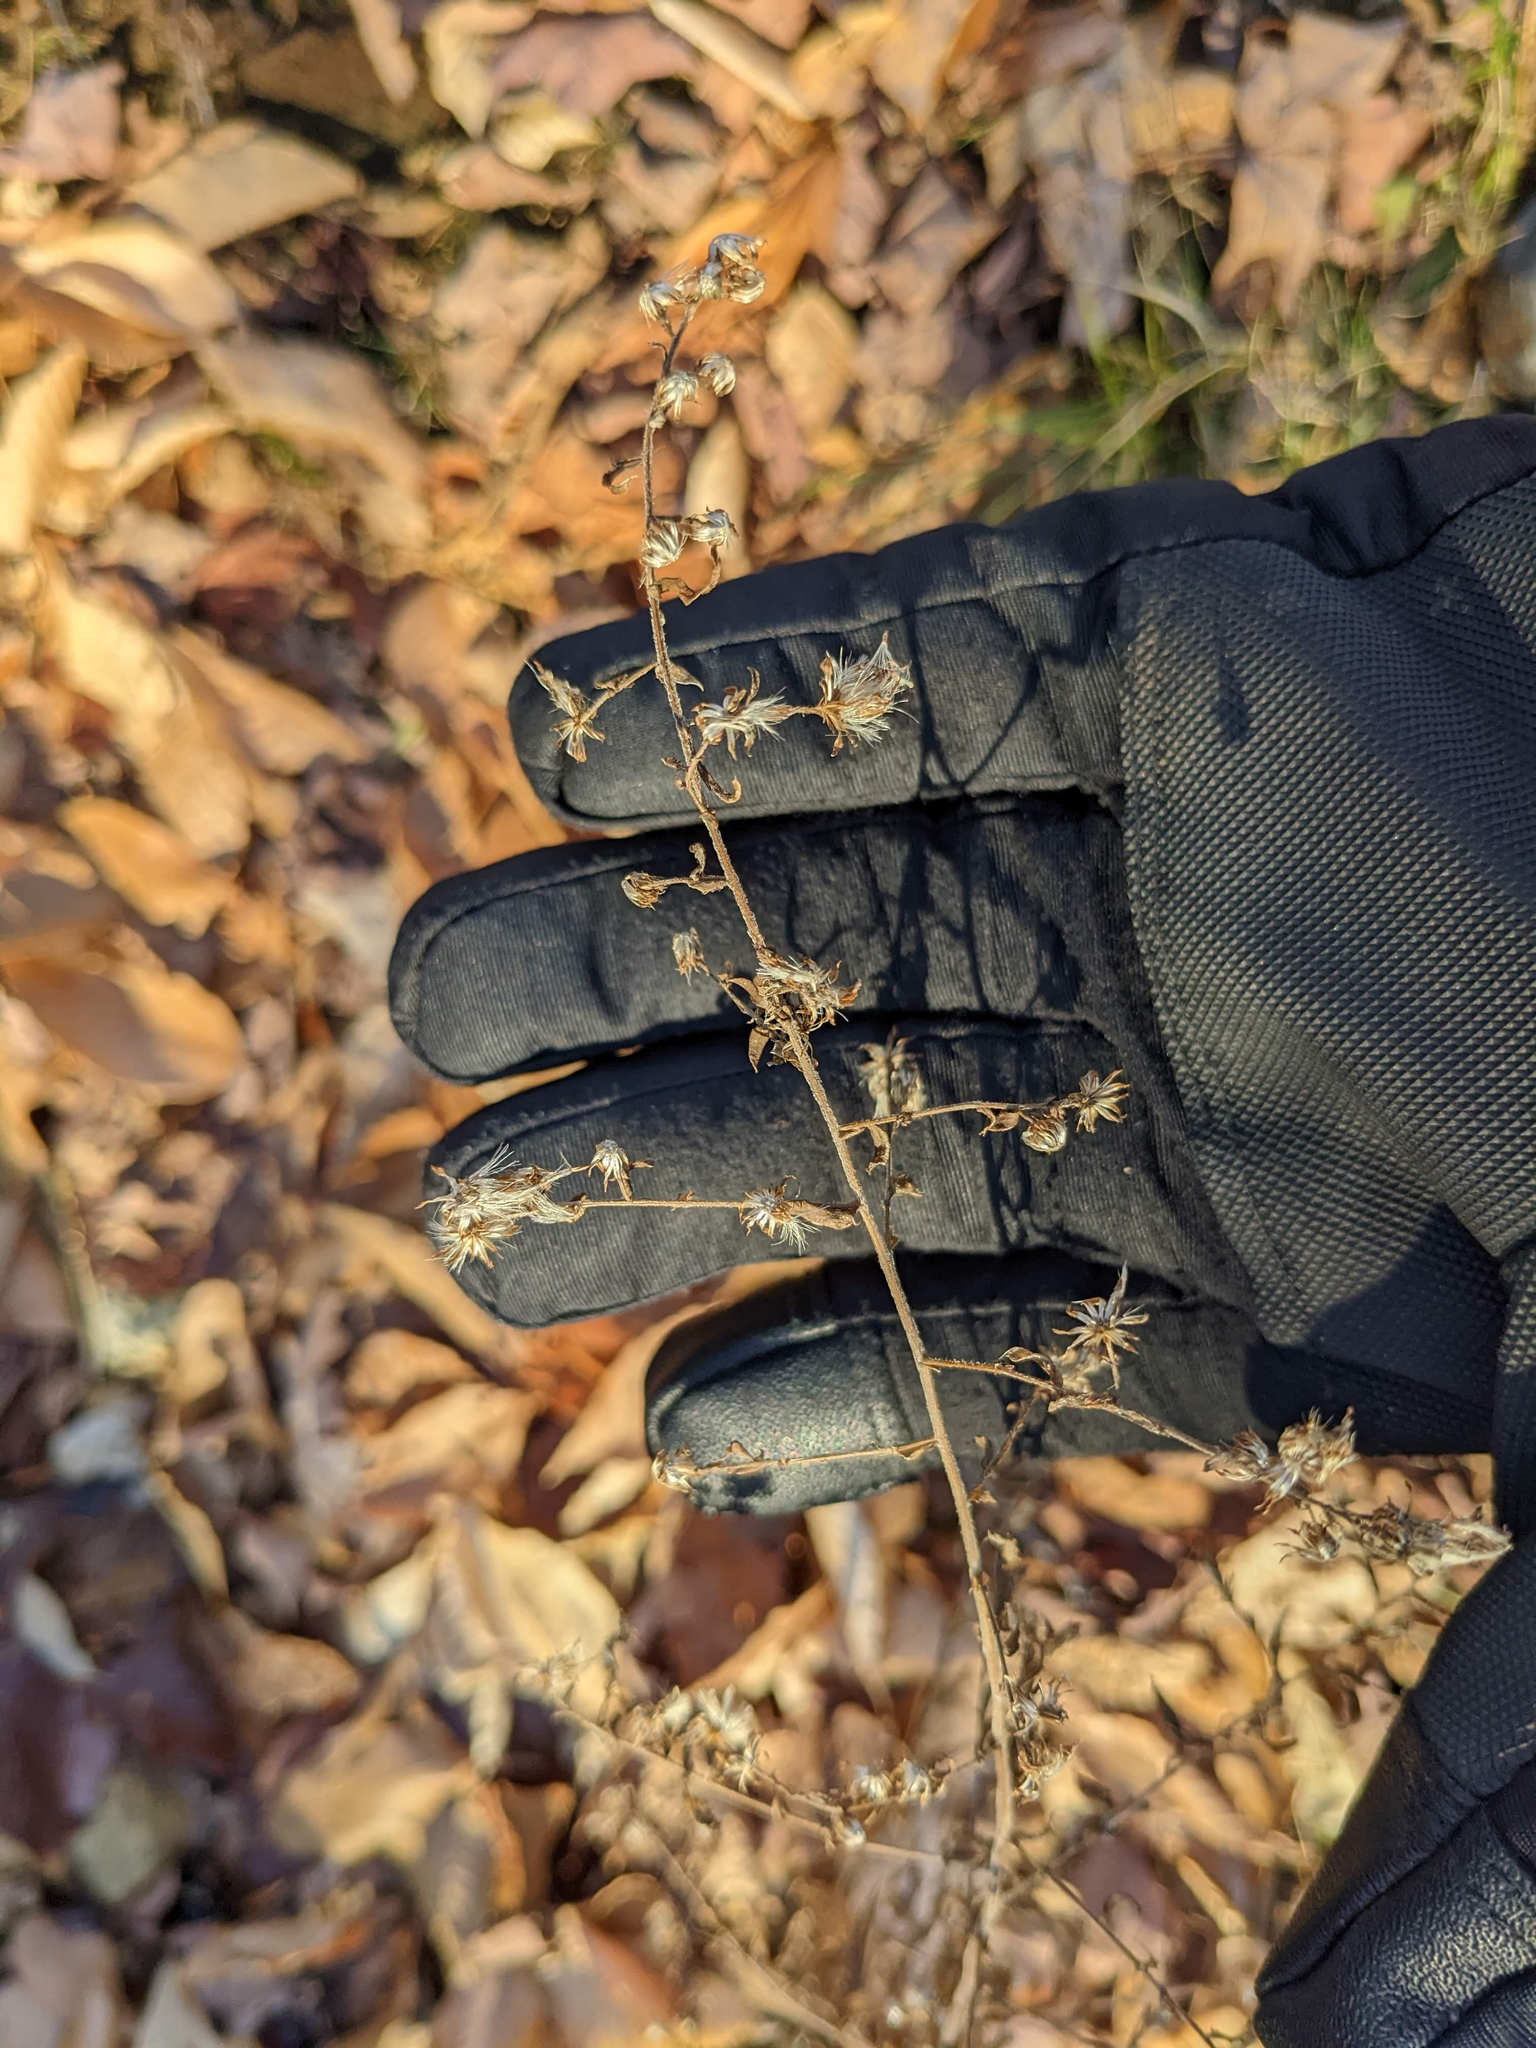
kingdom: Plantae
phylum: Tracheophyta
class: Magnoliopsida
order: Asterales
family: Asteraceae
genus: Symphyotrichum
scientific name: Symphyotrichum lateriflorum
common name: Calico aster
